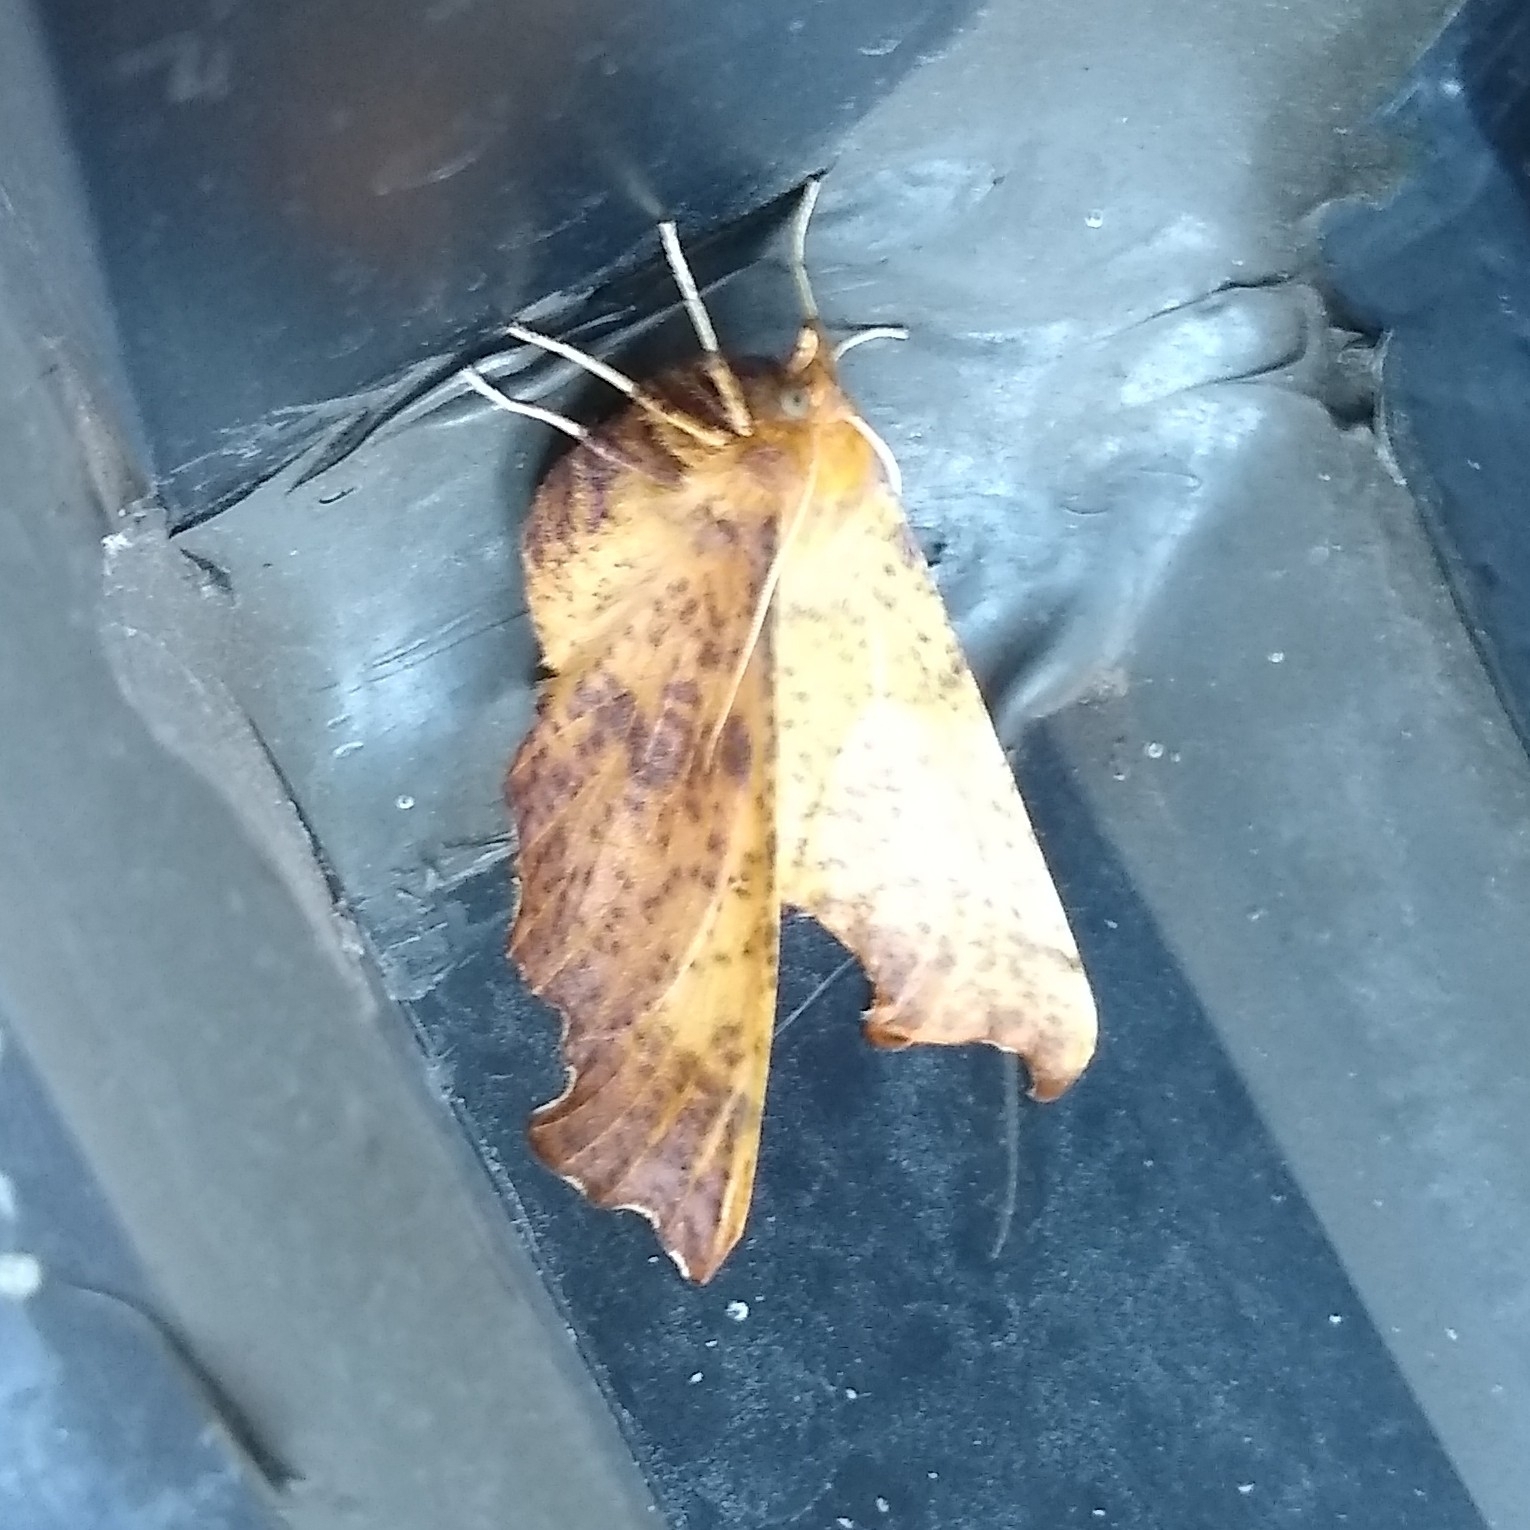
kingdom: Animalia
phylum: Arthropoda
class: Insecta
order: Lepidoptera
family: Geometridae
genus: Ennomos
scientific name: Ennomos magnaria
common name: Maple spanworm
